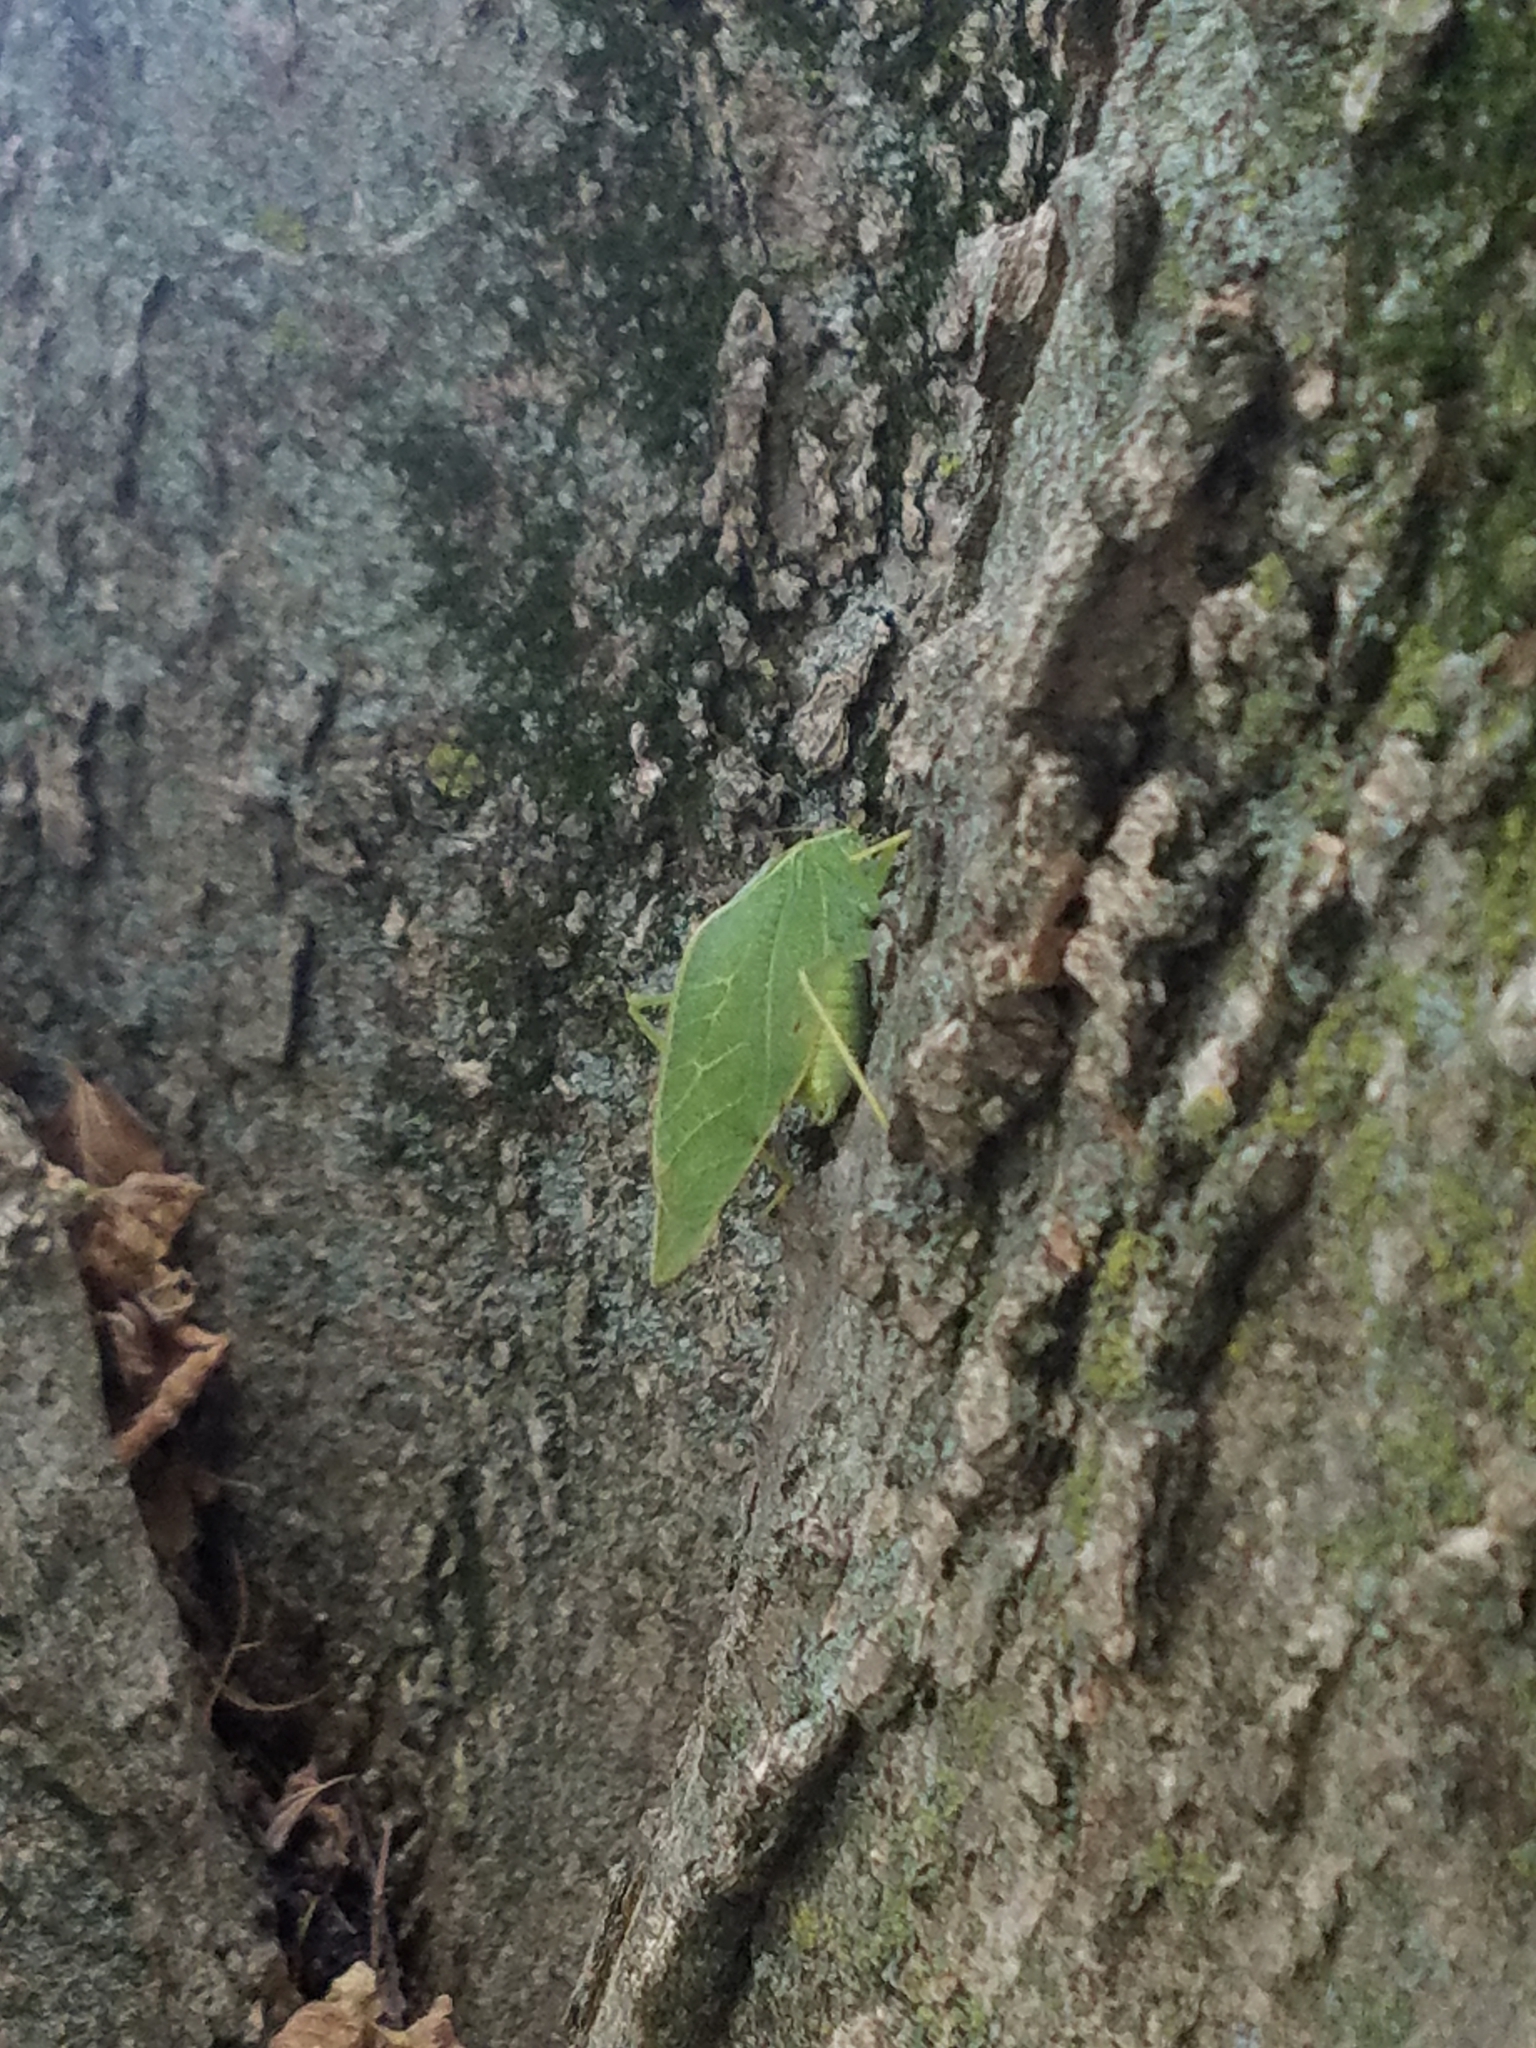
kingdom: Animalia
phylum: Arthropoda
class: Insecta
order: Orthoptera
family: Tettigoniidae
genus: Microcentrum
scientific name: Microcentrum rhombifolium
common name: Broad-winged katydid
